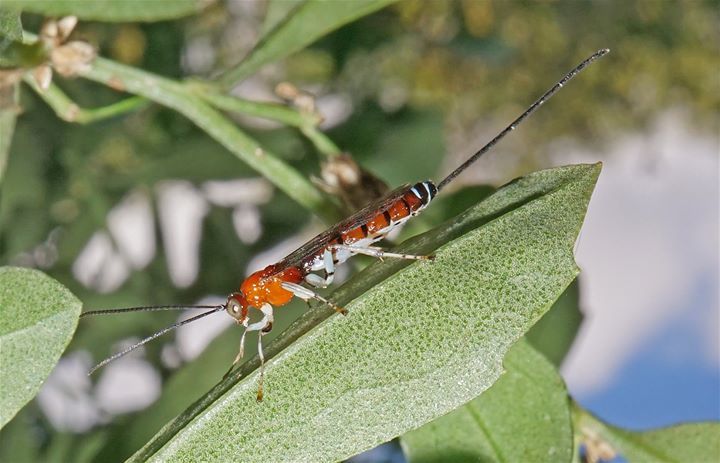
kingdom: Animalia
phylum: Arthropoda
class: Insecta
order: Hymenoptera
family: Ichneumonidae
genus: Calliephialtes
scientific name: Calliephialtes ferrugineus
